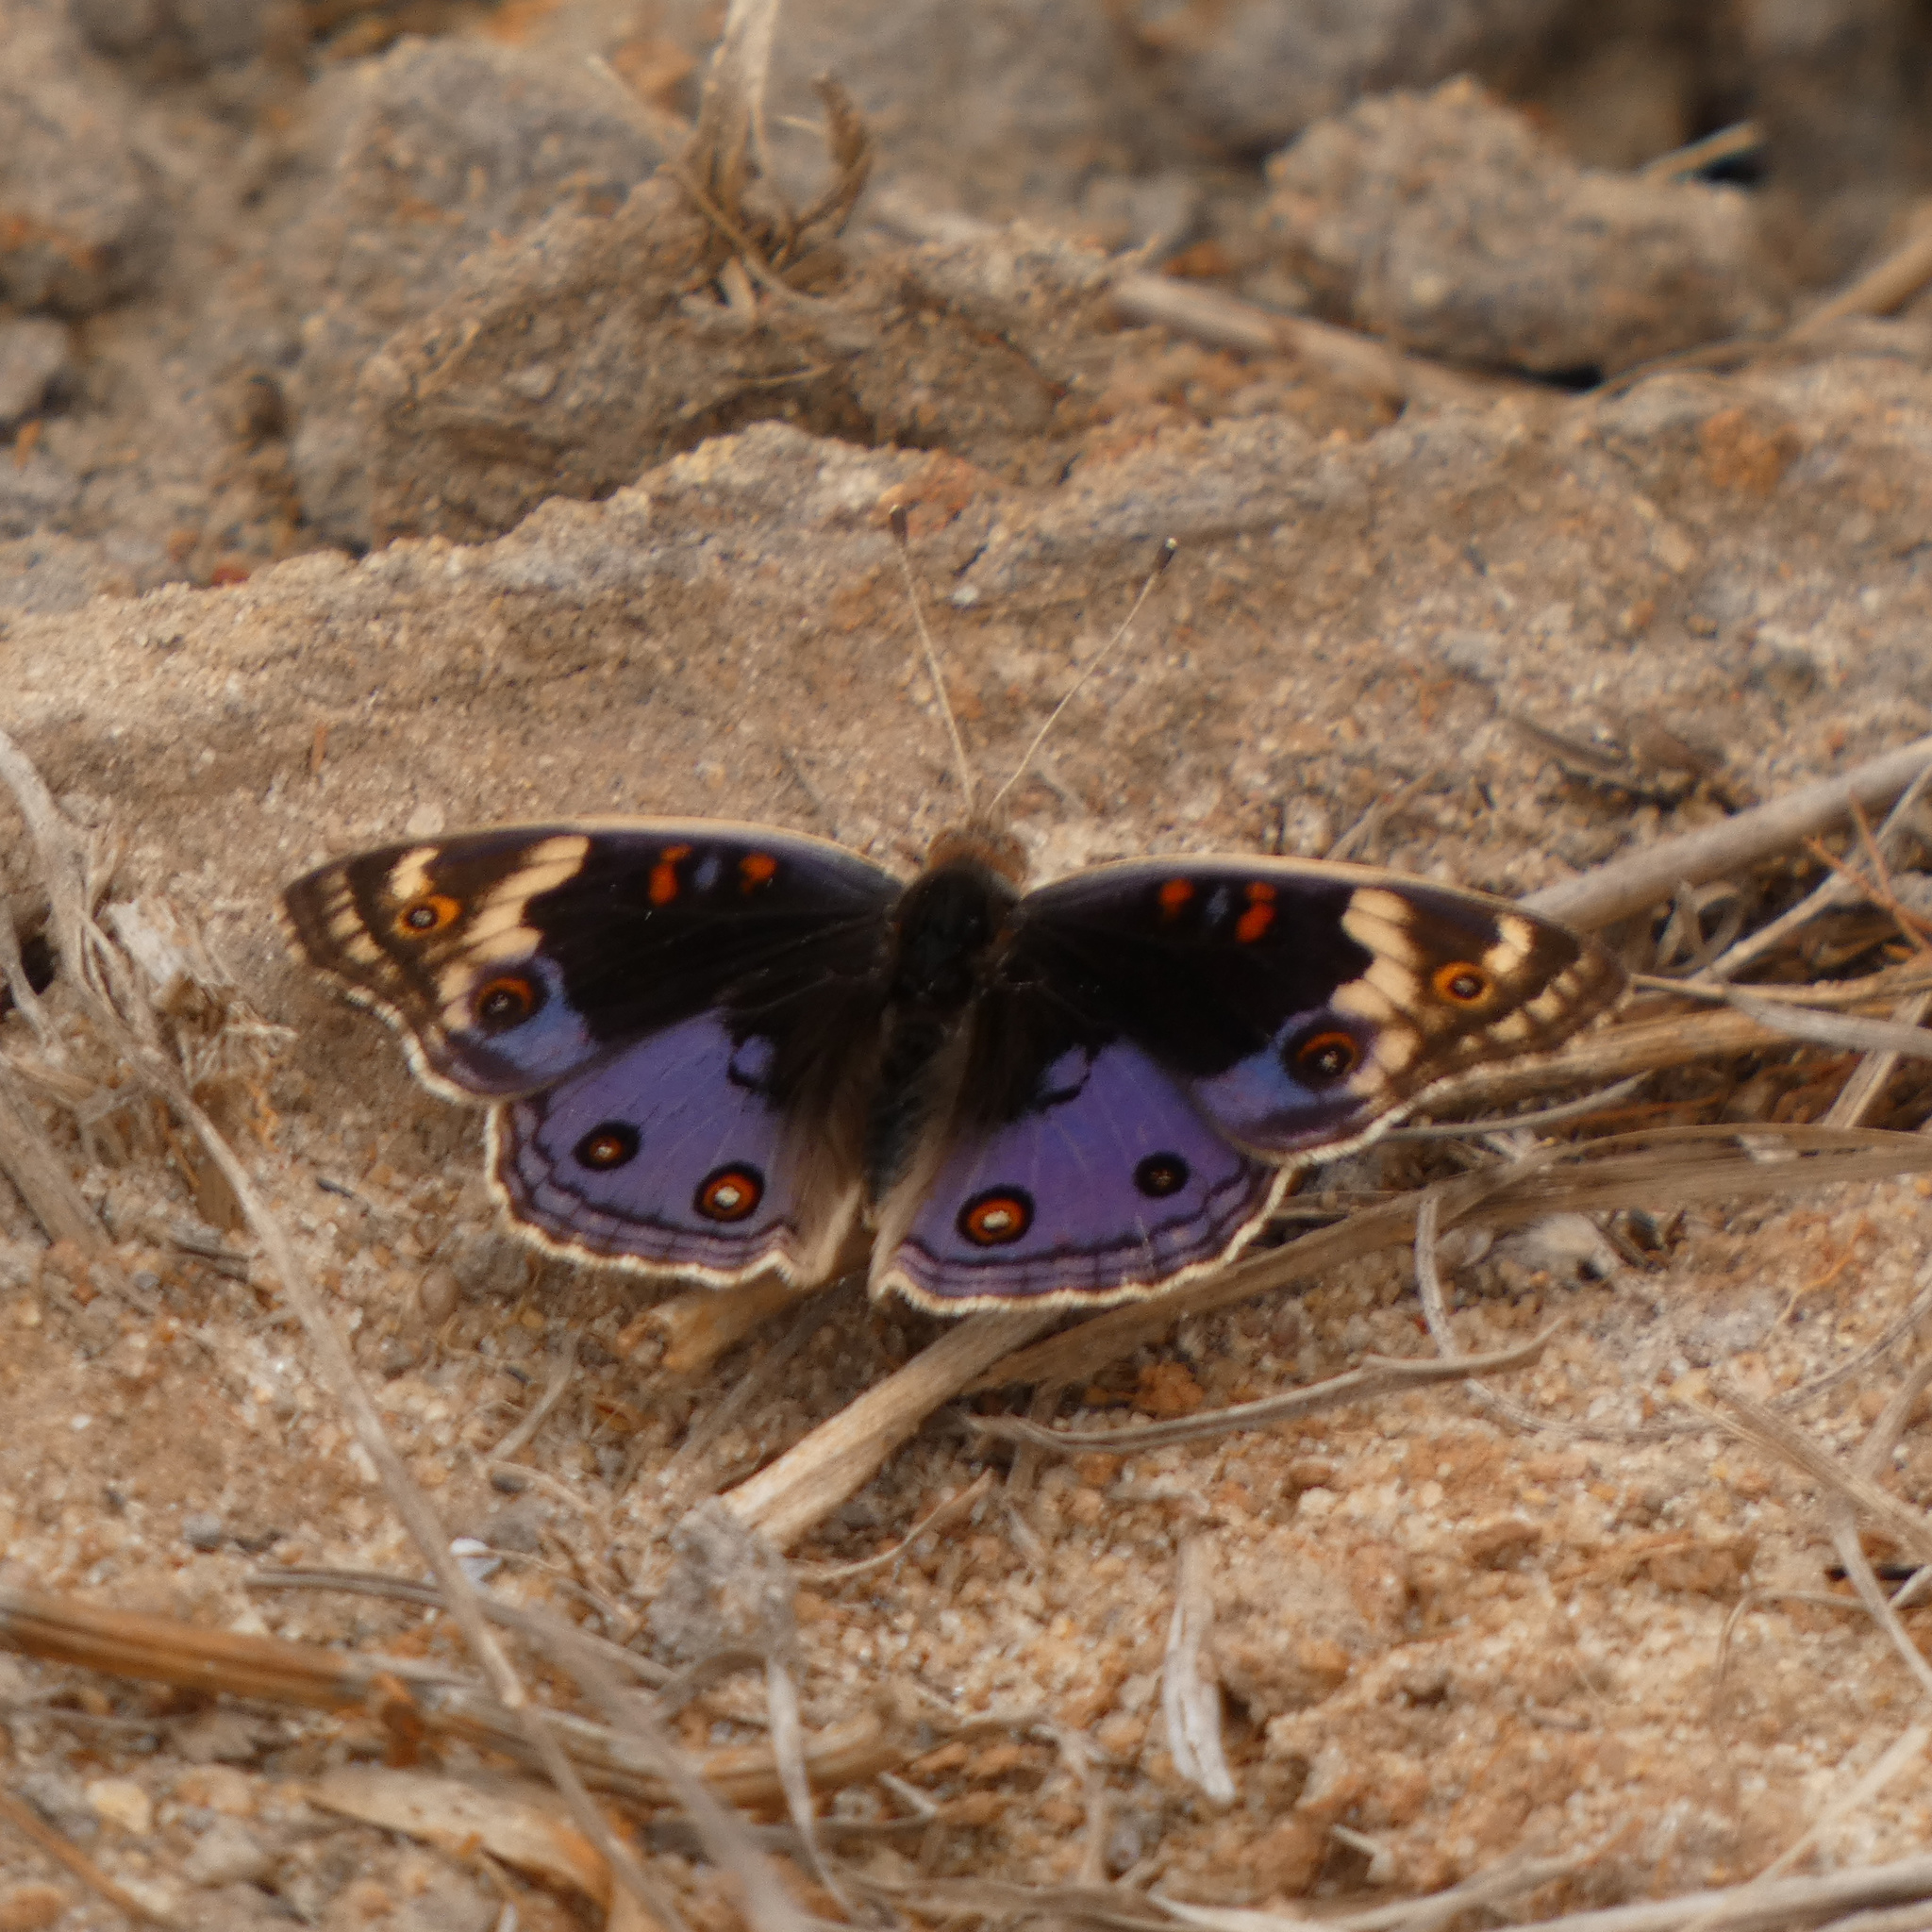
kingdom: Animalia
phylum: Arthropoda
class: Insecta
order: Lepidoptera
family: Nymphalidae
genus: Junonia
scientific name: Junonia orithya
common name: Blue pansy
